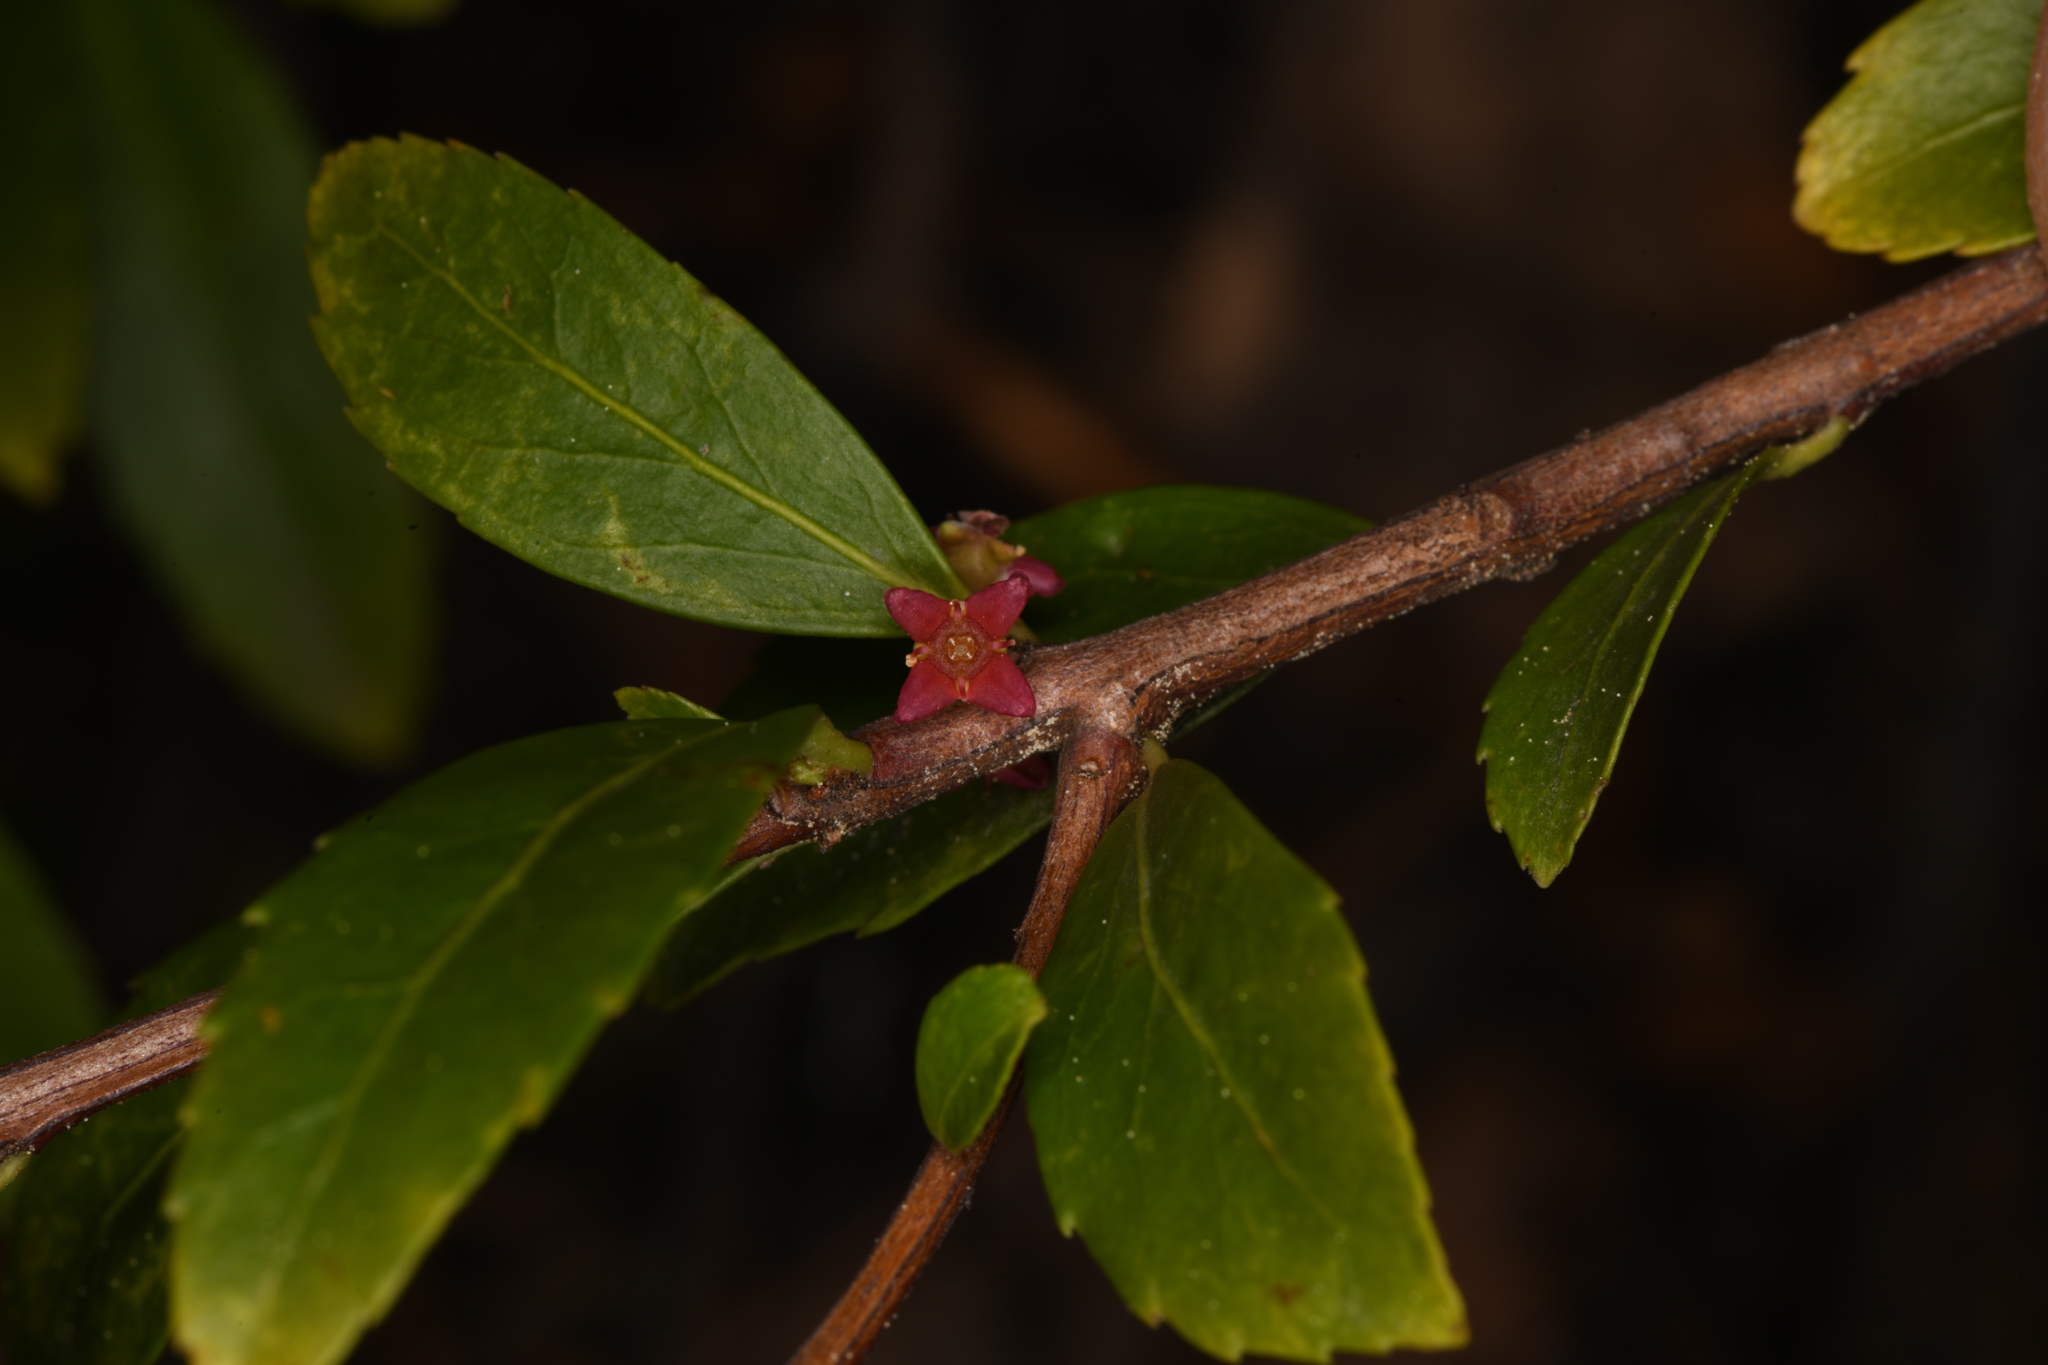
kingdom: Plantae
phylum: Tracheophyta
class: Magnoliopsida
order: Celastrales
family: Celastraceae
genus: Paxistima
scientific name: Paxistima myrsinites
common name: Mountain-lover
